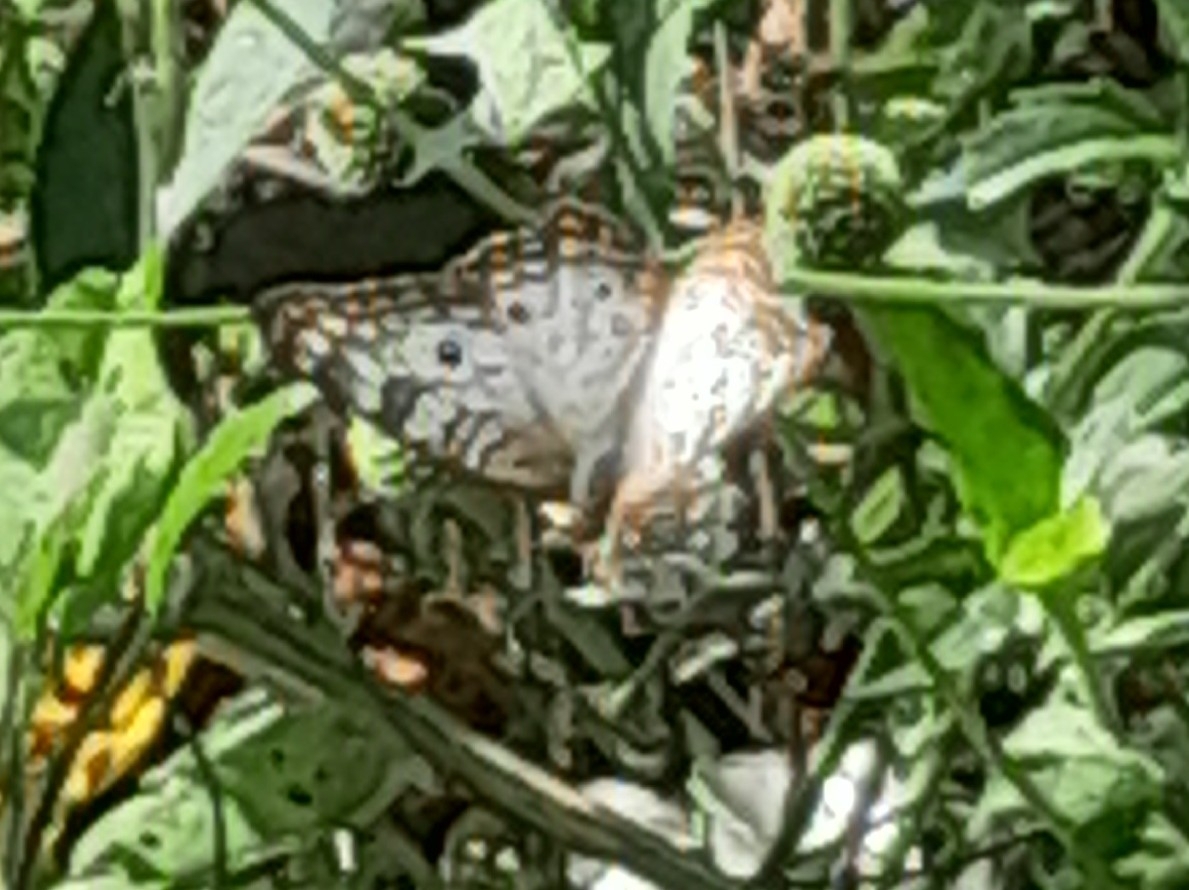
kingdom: Animalia
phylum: Arthropoda
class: Insecta
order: Lepidoptera
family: Nymphalidae
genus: Anartia
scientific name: Anartia jatrophae
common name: White peacock
